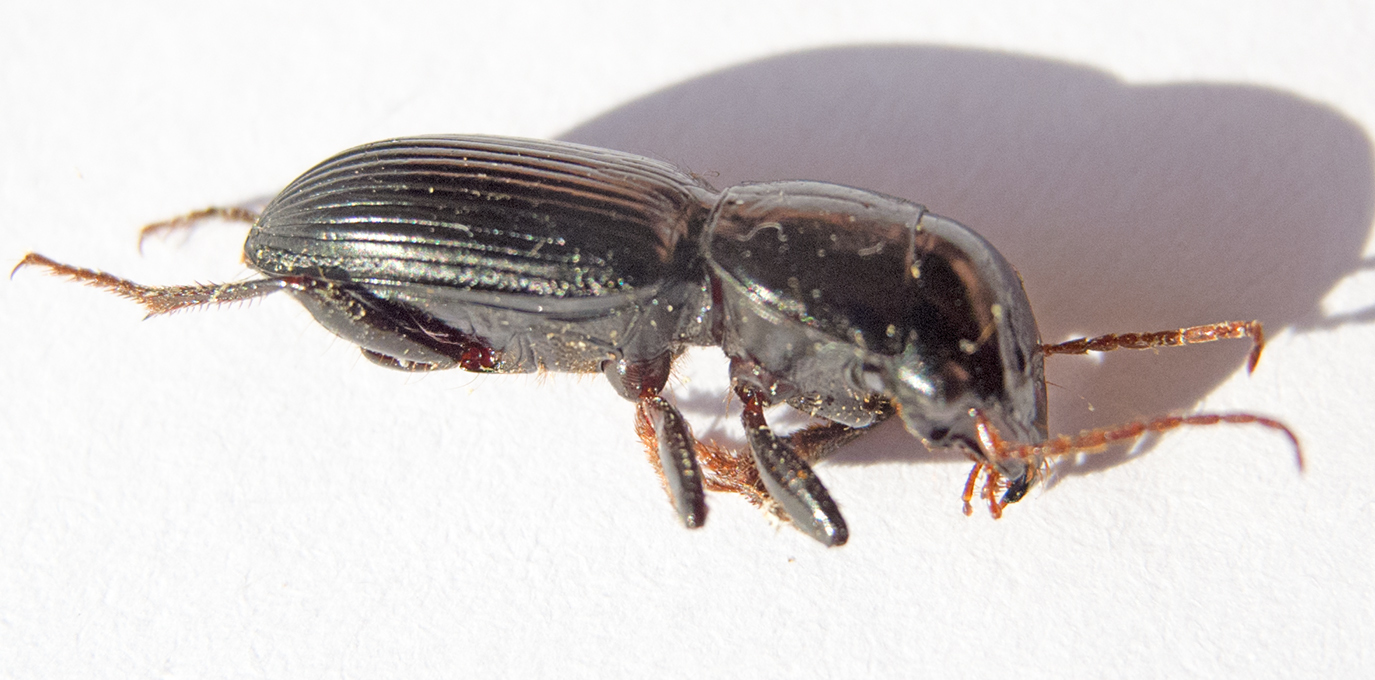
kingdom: Animalia
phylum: Arthropoda
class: Insecta
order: Coleoptera
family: Carabidae
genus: Acinopus
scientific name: Acinopus megacephalus
